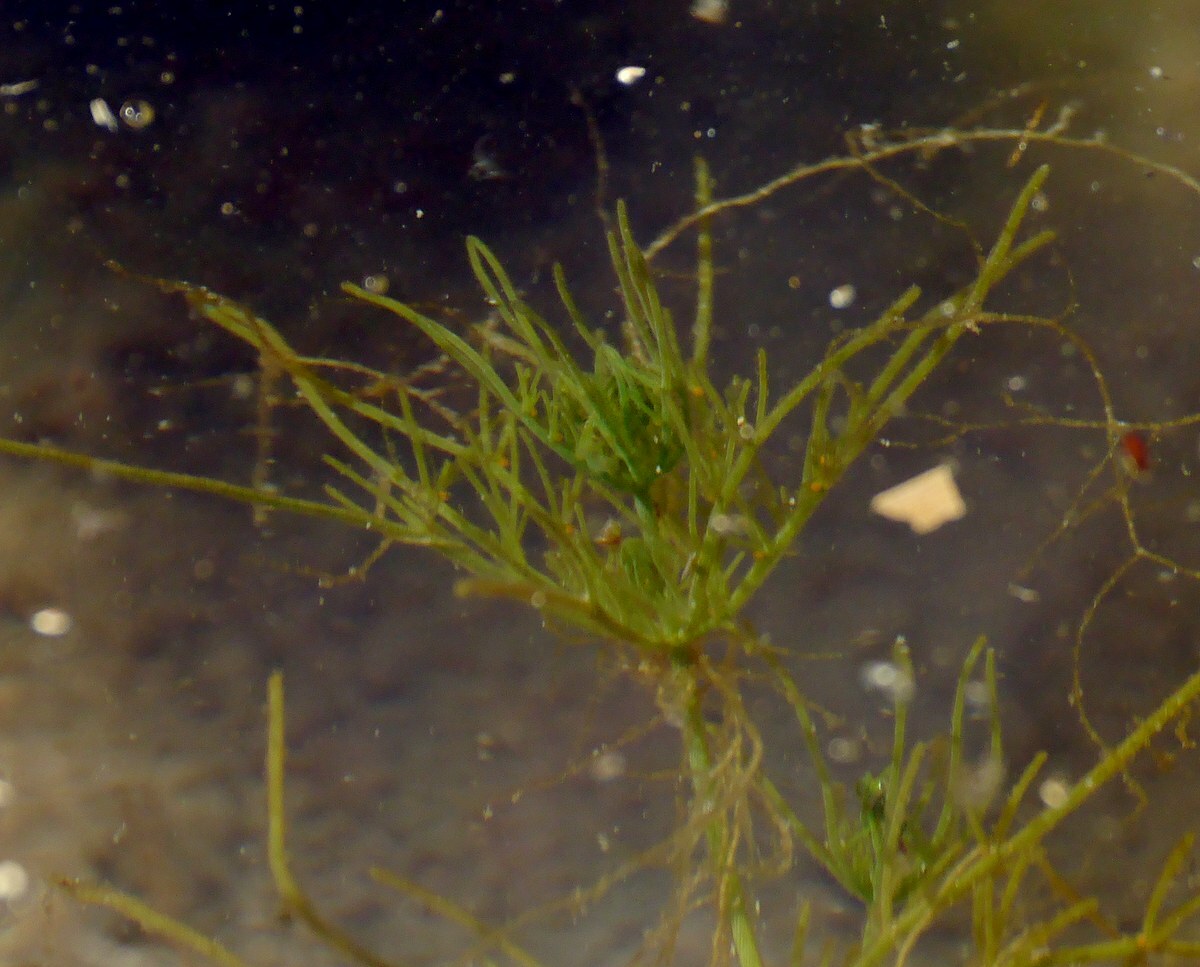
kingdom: Plantae
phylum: Charophyta
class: Charophyceae
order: Charales
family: Characeae
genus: Chara
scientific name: Chara vulgaris
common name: Common stonewort
